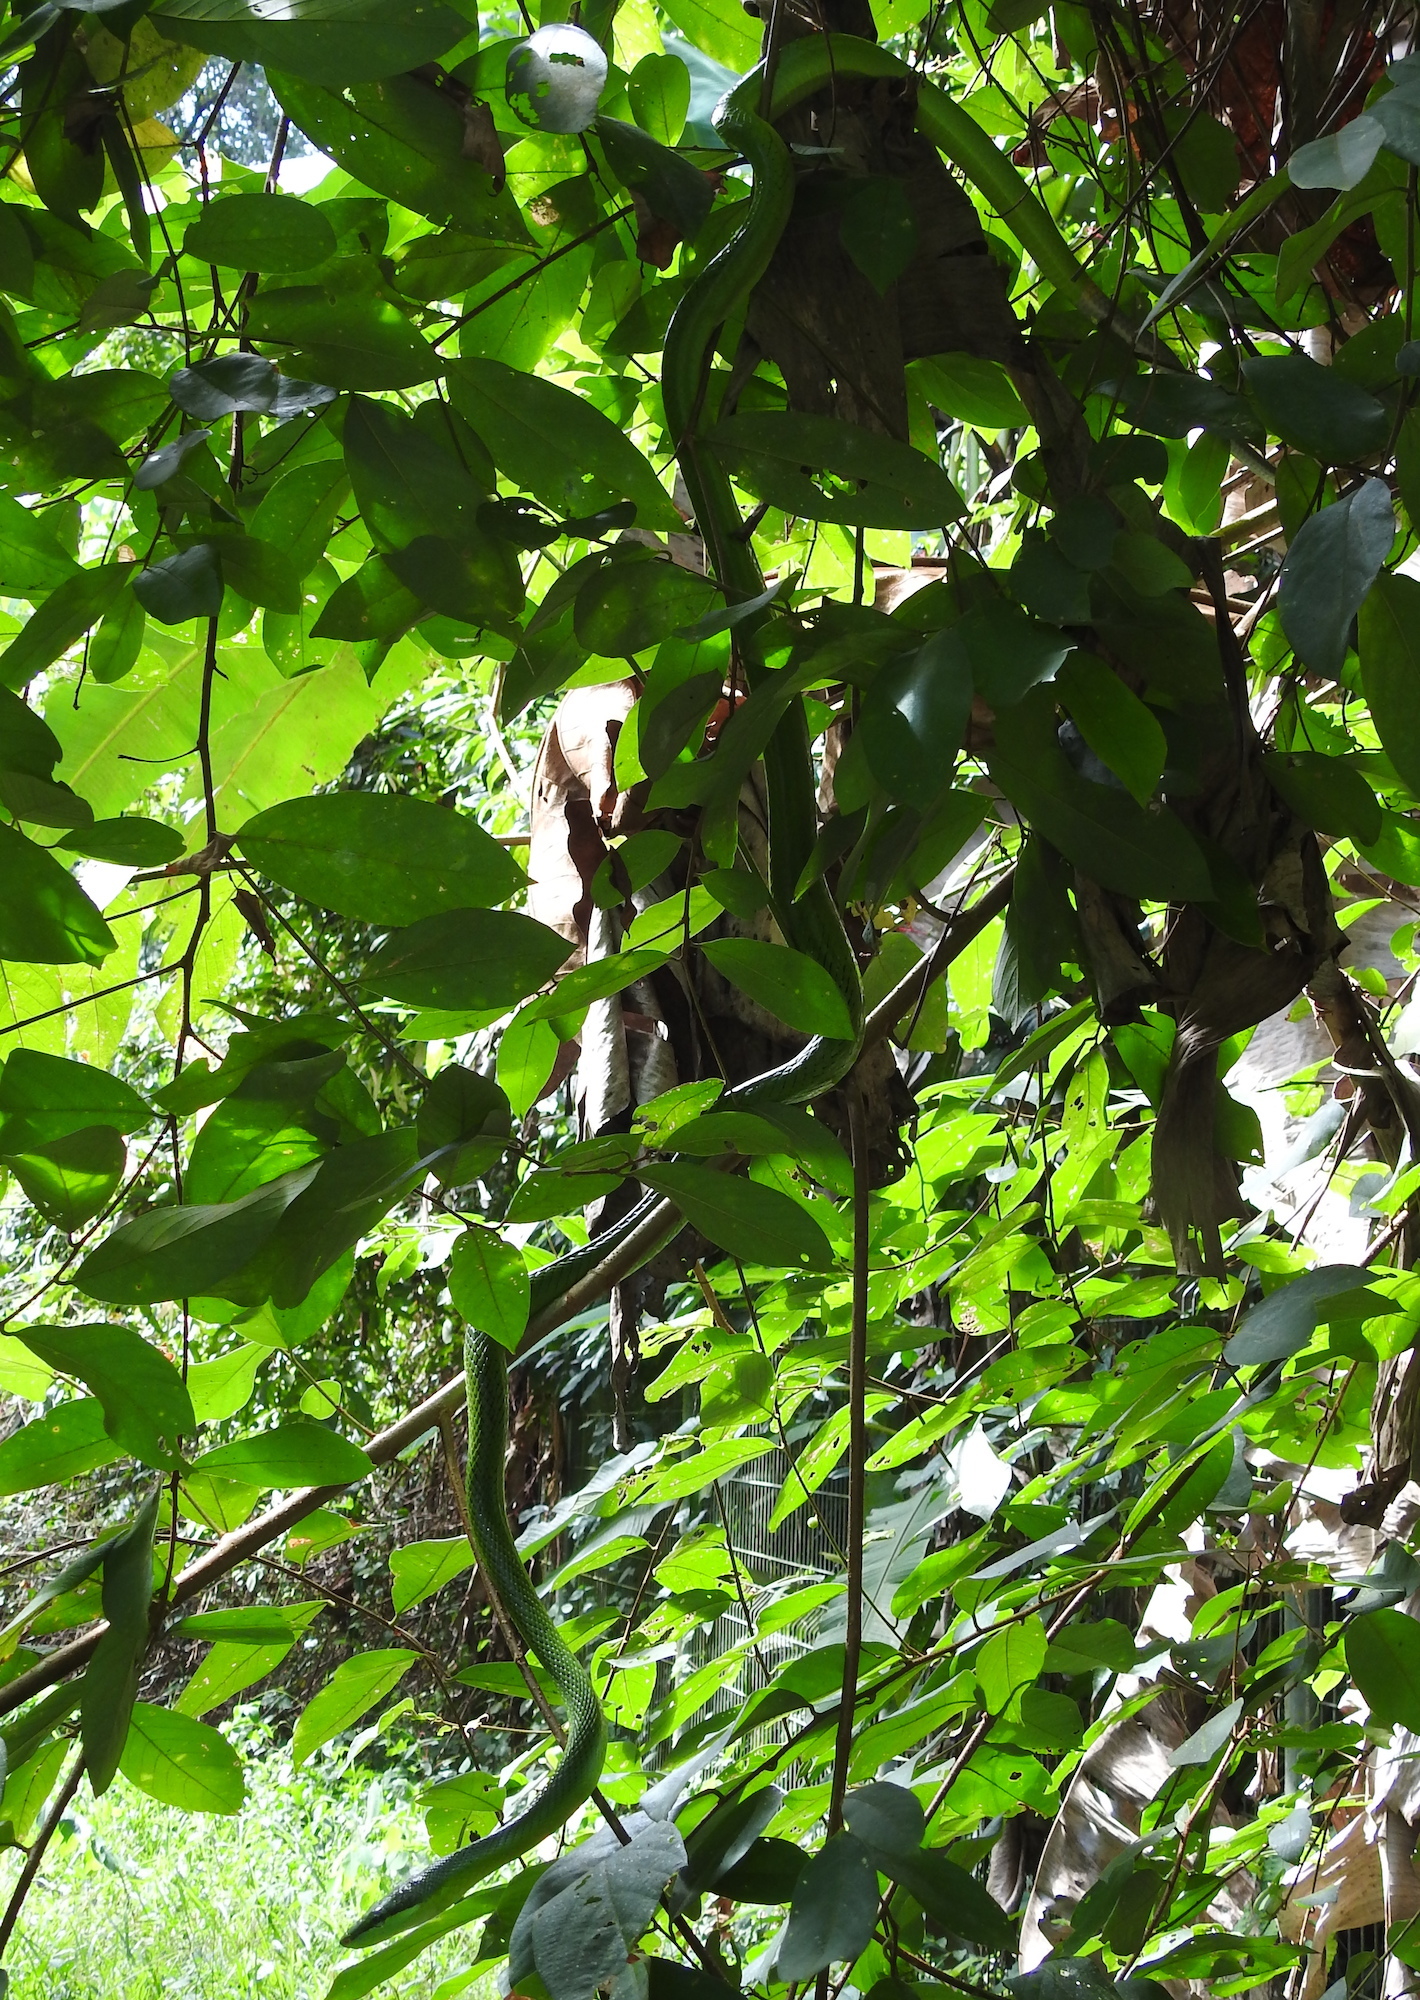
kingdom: Animalia
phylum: Chordata
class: Squamata
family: Colubridae
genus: Gonyosoma
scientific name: Gonyosoma oxycephalum
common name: Red-tailed racer
